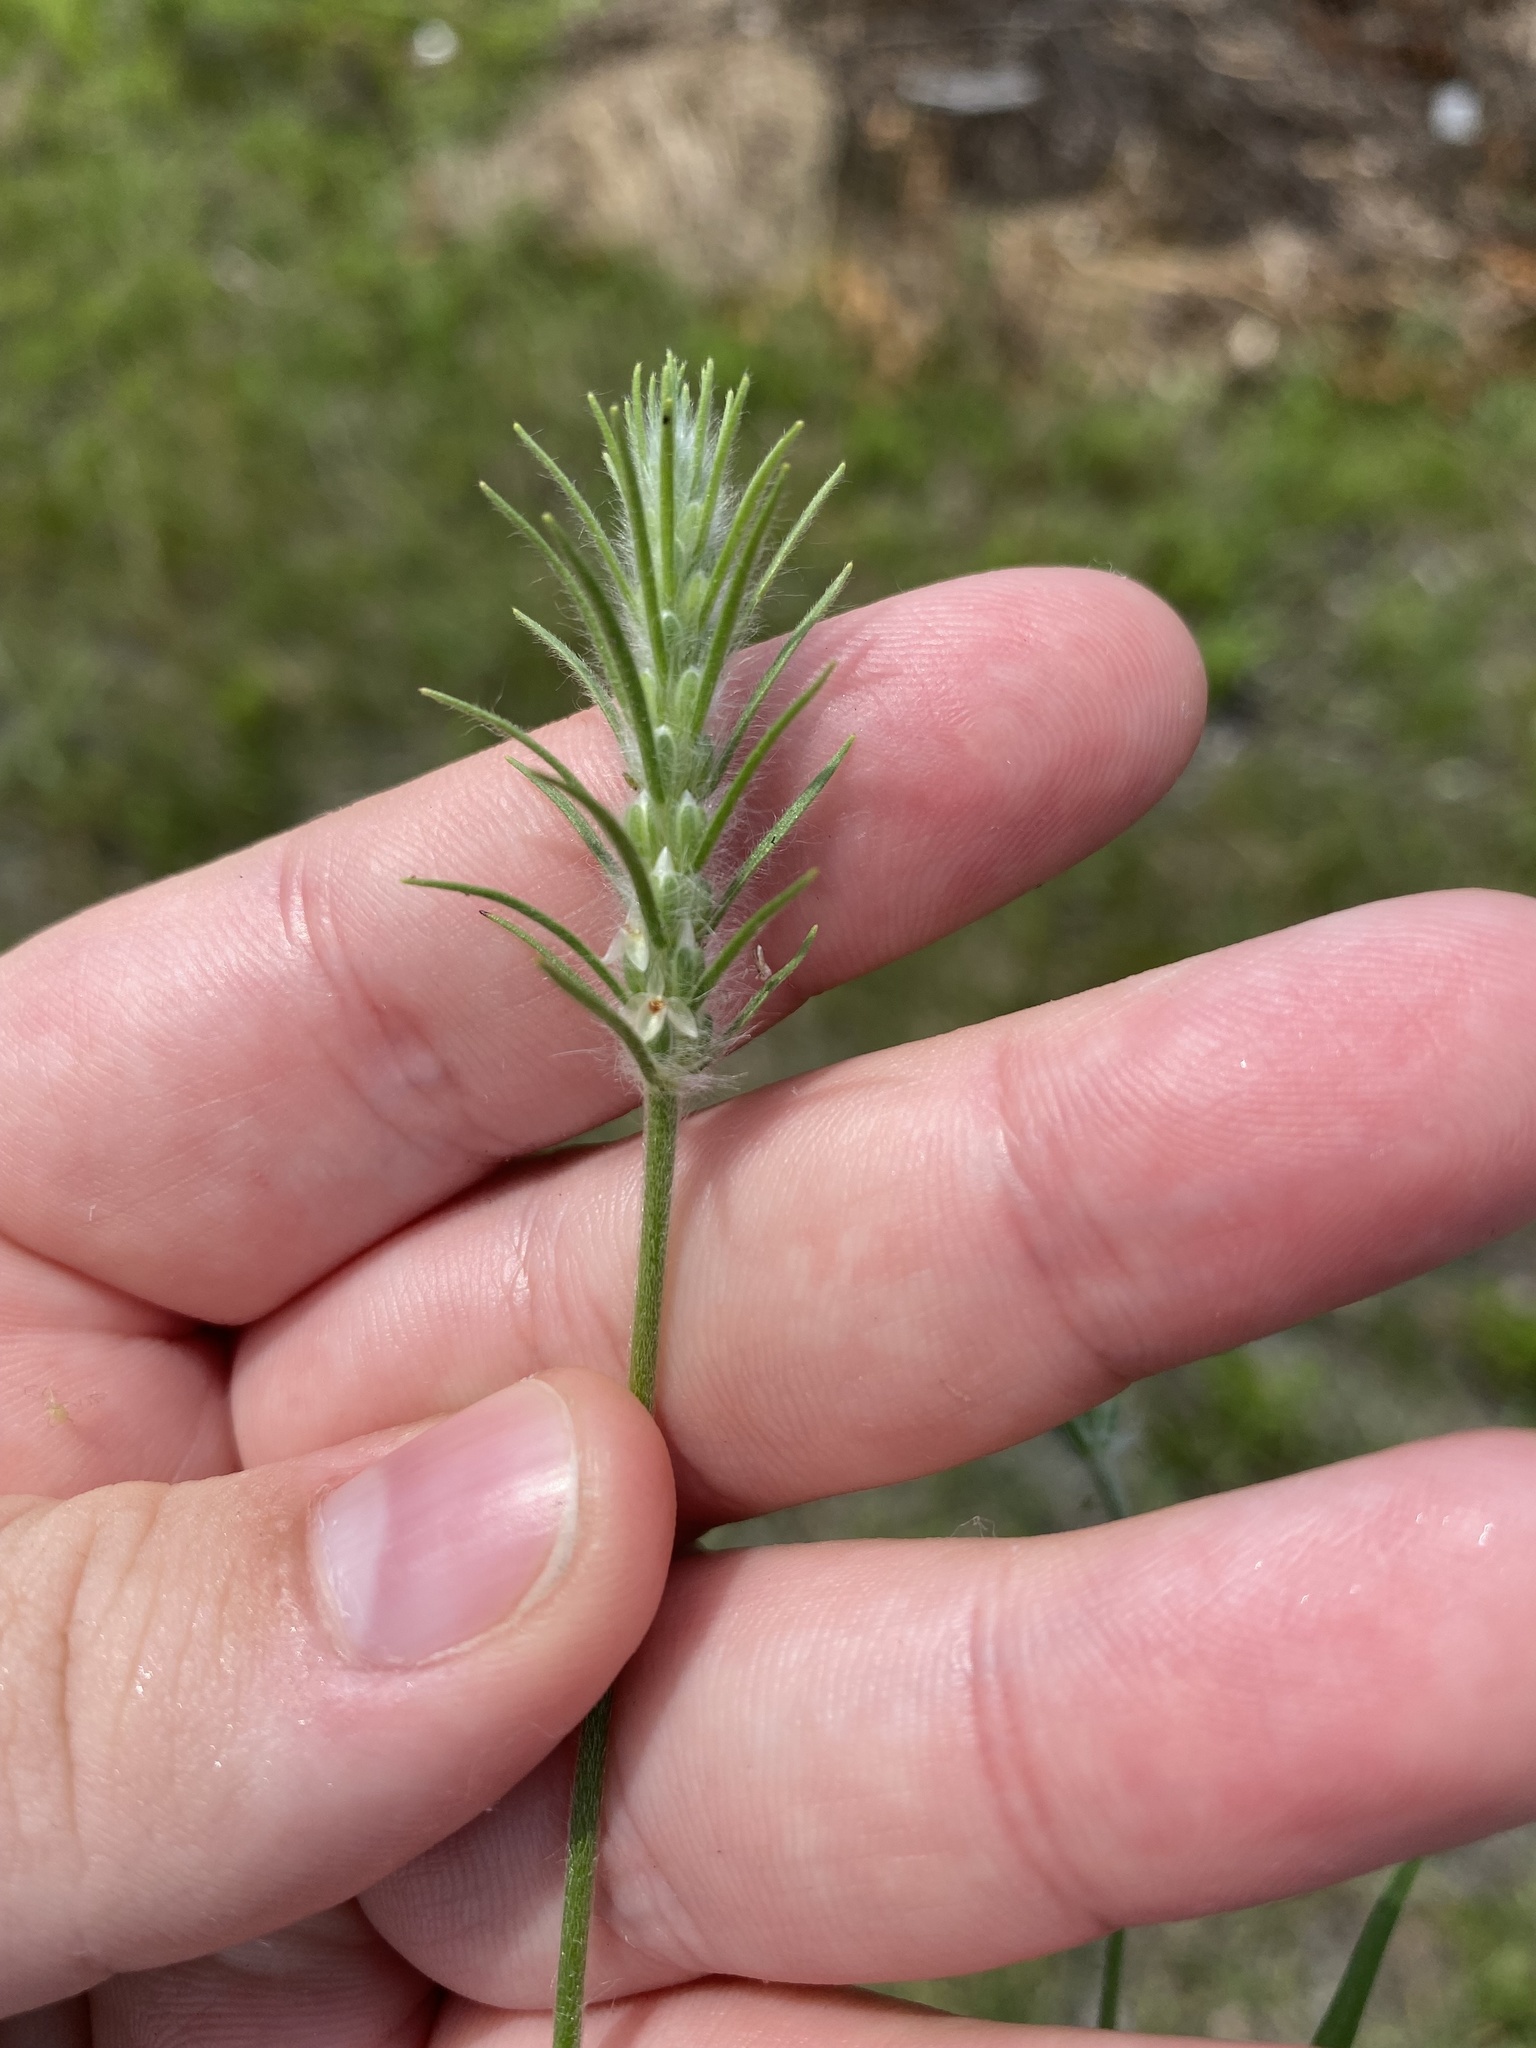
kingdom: Plantae
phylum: Tracheophyta
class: Magnoliopsida
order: Lamiales
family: Plantaginaceae
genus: Plantago
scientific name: Plantago aristata
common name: Bracted plantain
